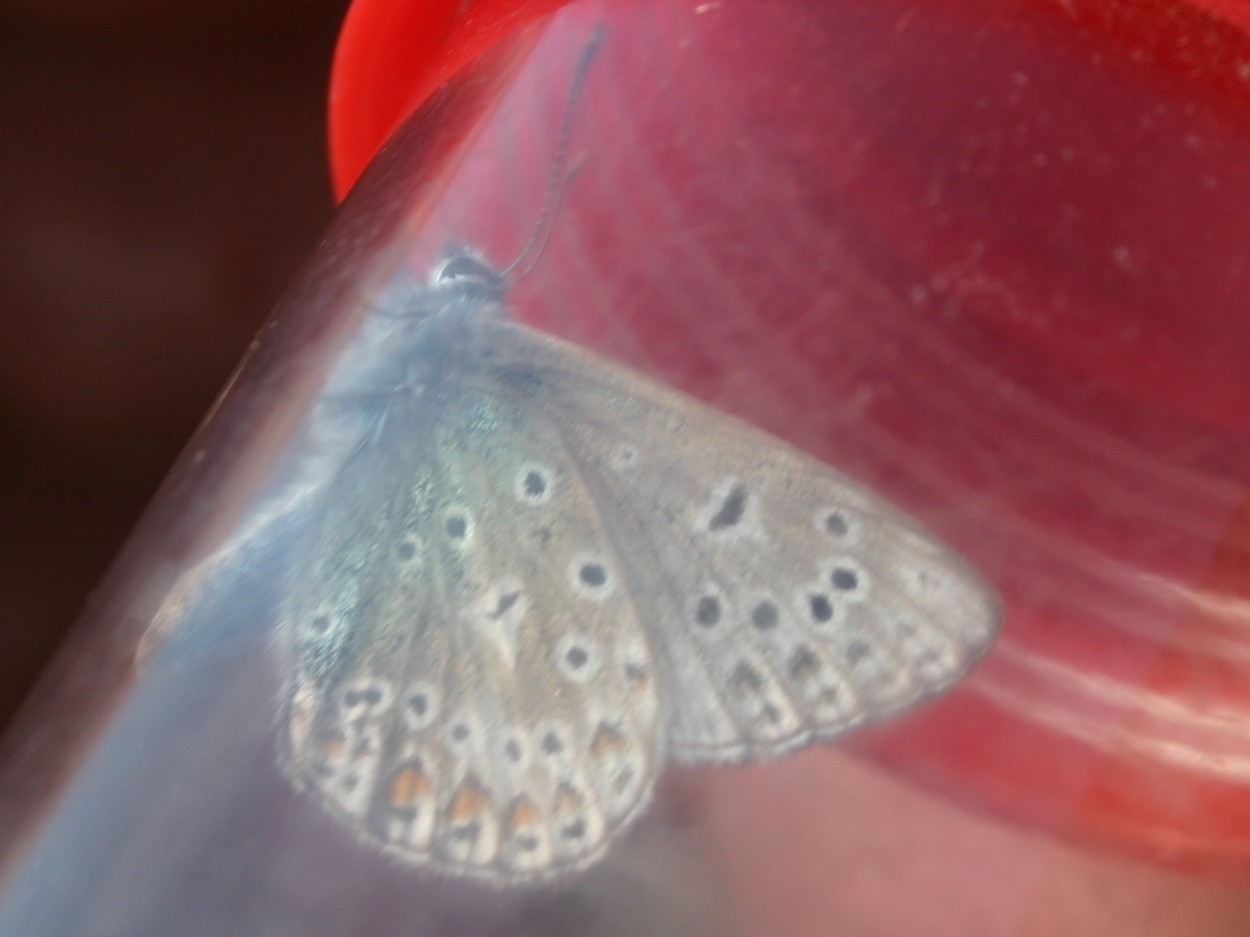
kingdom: Animalia
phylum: Arthropoda
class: Insecta
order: Lepidoptera
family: Lycaenidae
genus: Polyommatus
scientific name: Polyommatus icarus
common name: Common blue
